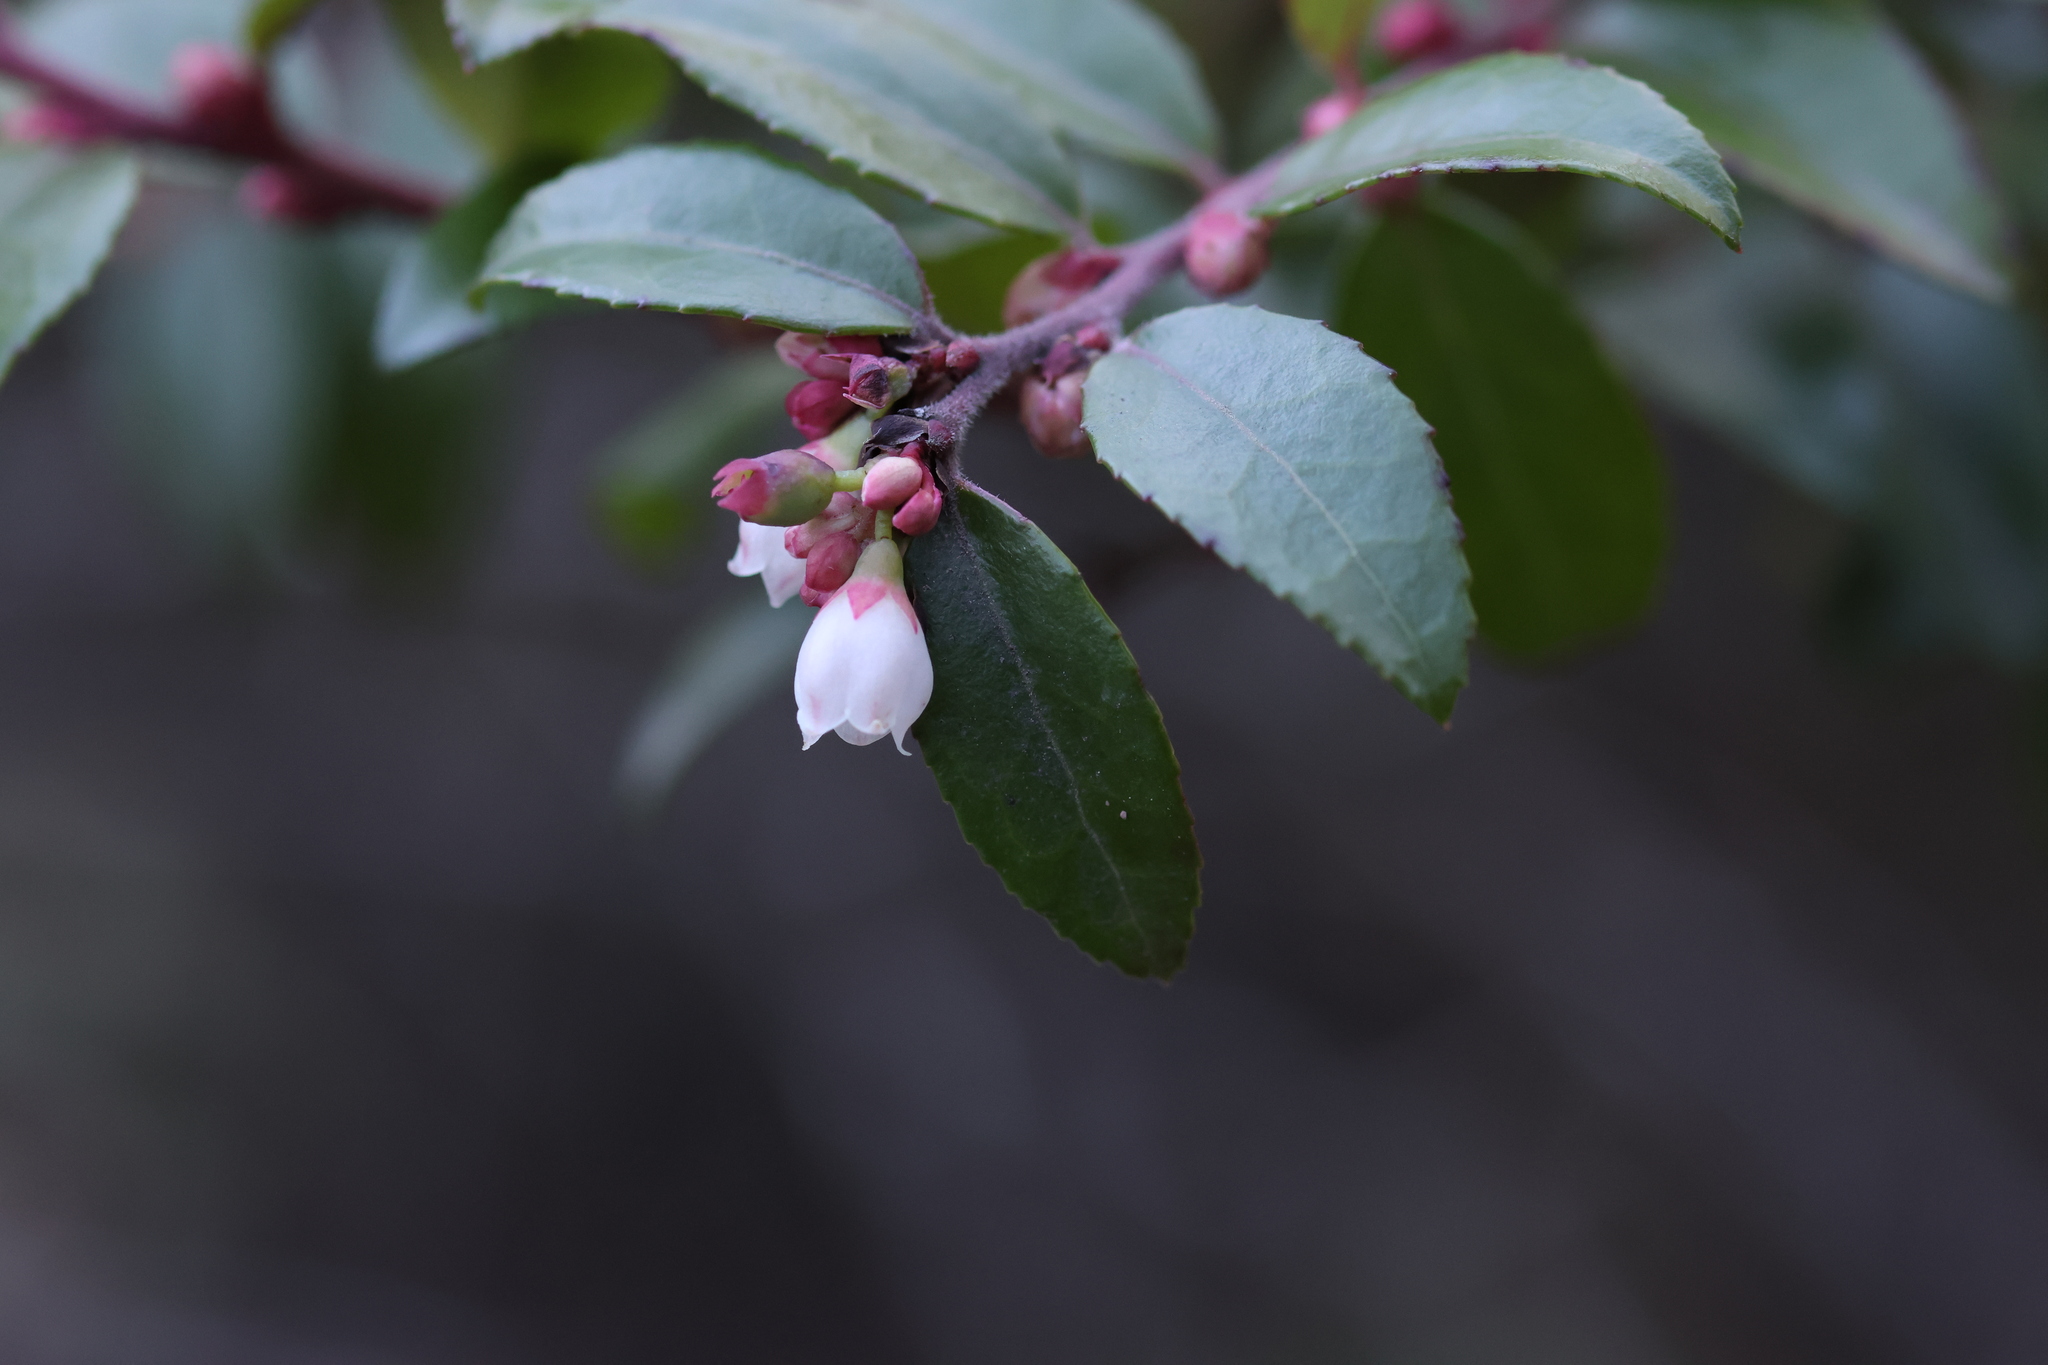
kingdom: Plantae
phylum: Tracheophyta
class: Magnoliopsida
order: Ericales
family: Ericaceae
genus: Vaccinium
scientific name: Vaccinium ovatum
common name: California-huckleberry
